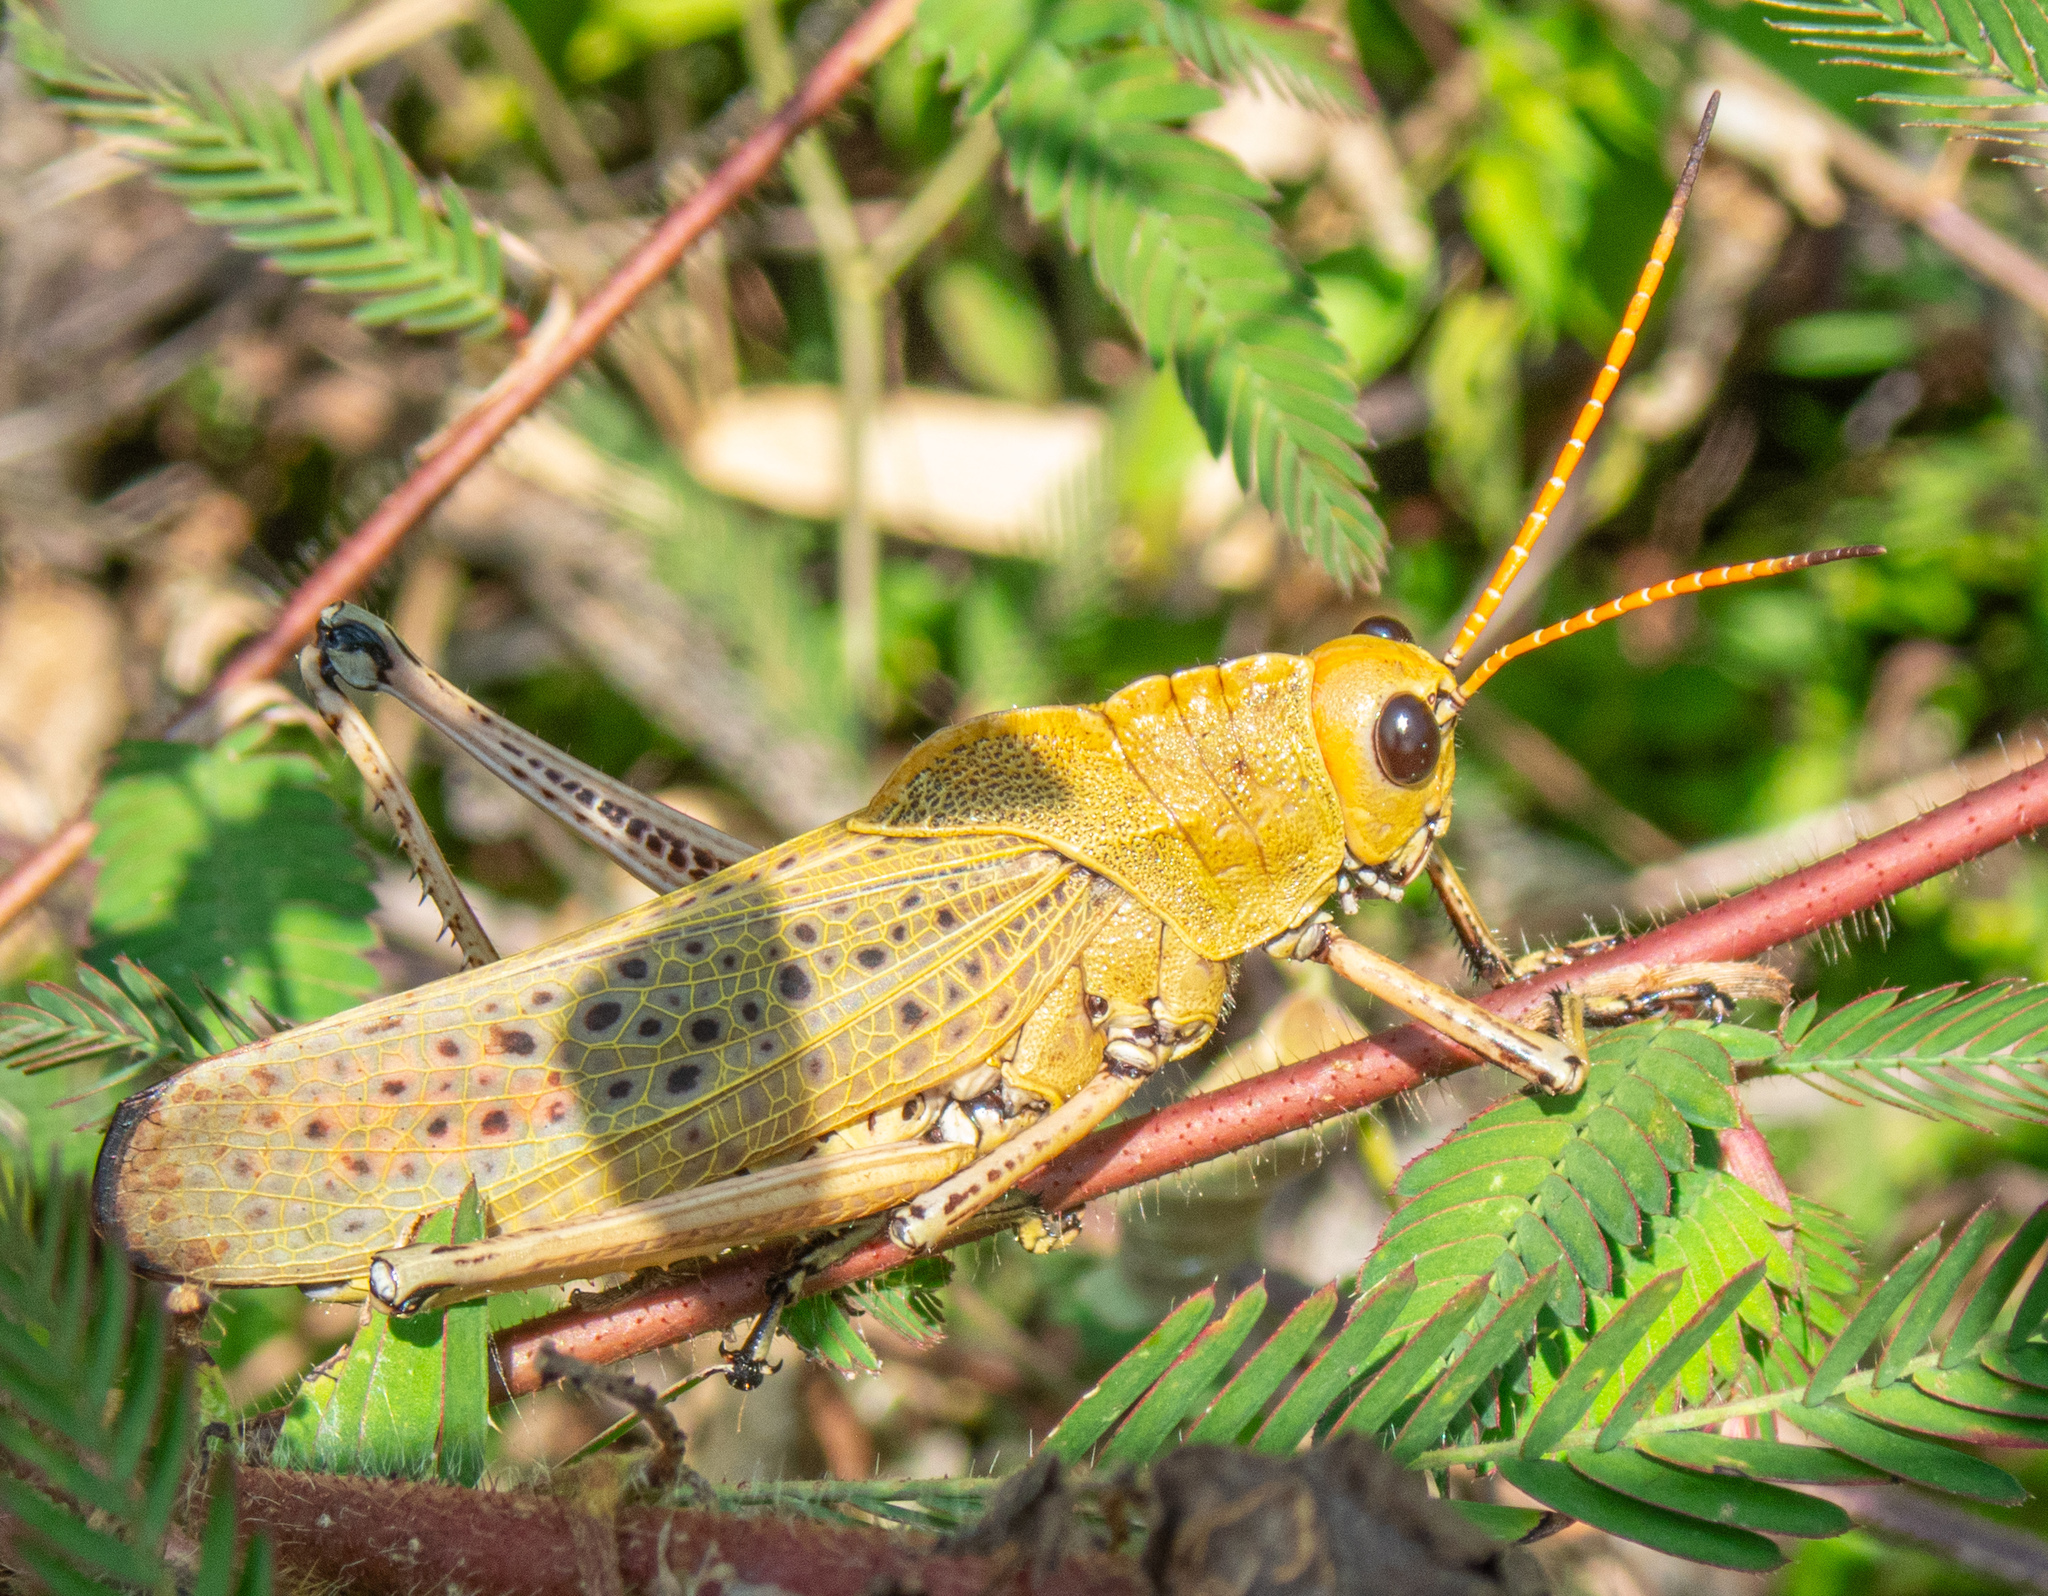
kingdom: Animalia
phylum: Arthropoda
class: Insecta
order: Orthoptera
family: Romaleidae
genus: Romalea
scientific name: Romalea
